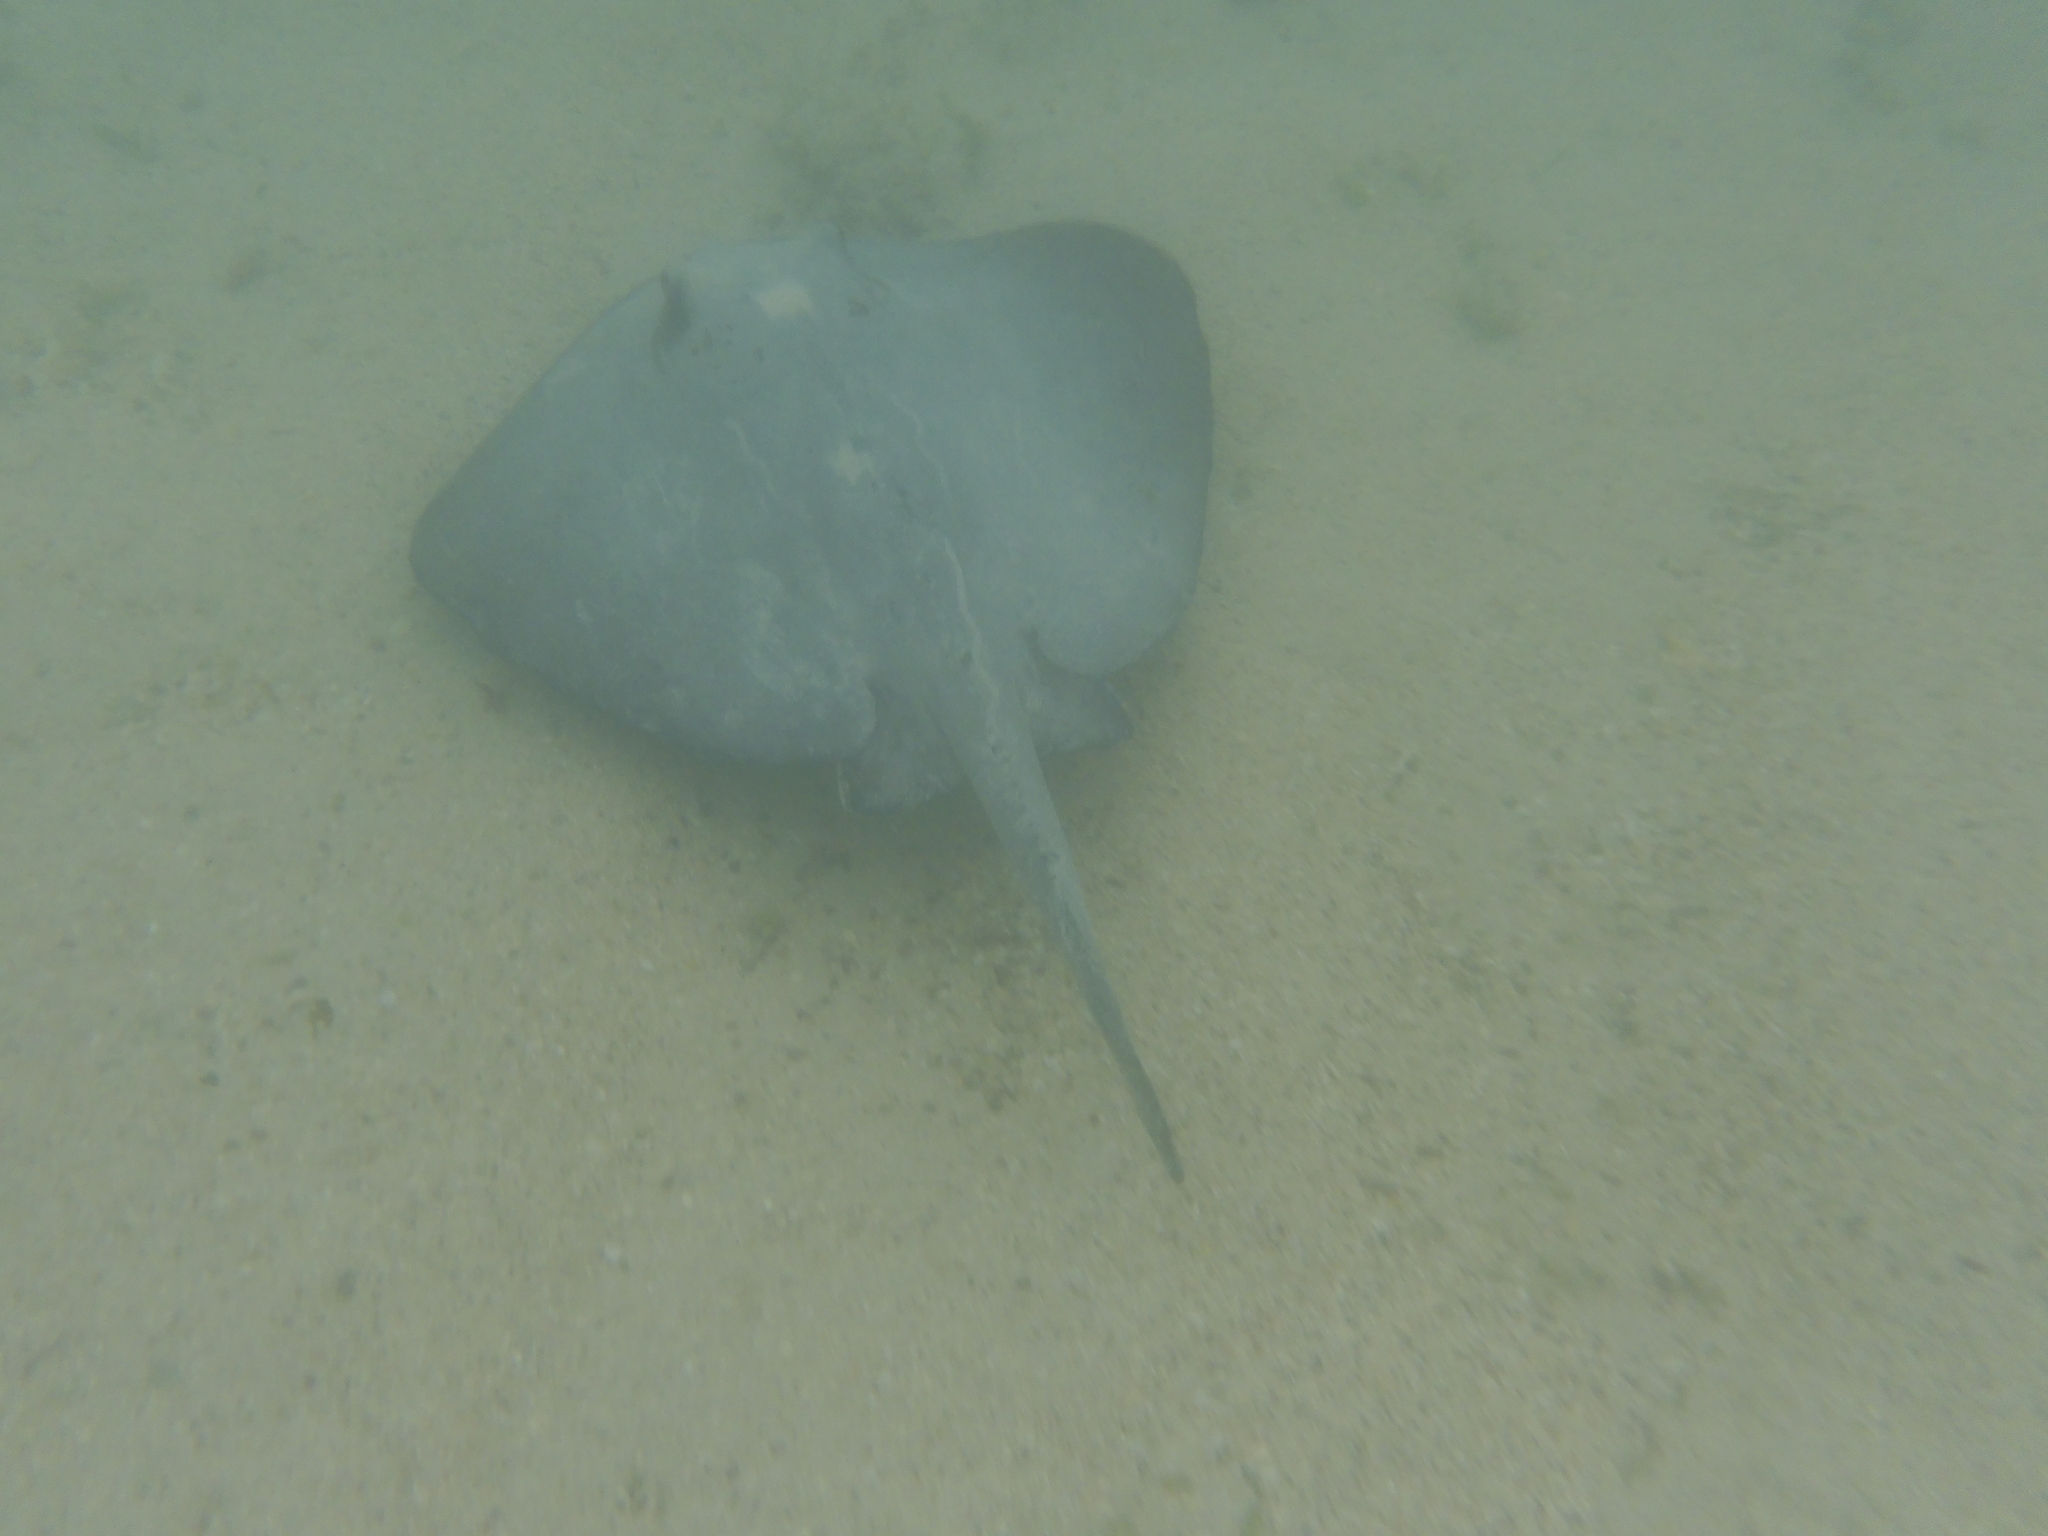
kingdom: Animalia
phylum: Chordata
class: Elasmobranchii
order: Myliobatiformes
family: Dasyatidae
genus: Hypanus
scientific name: Hypanus dipterurus
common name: Diamond stingray
